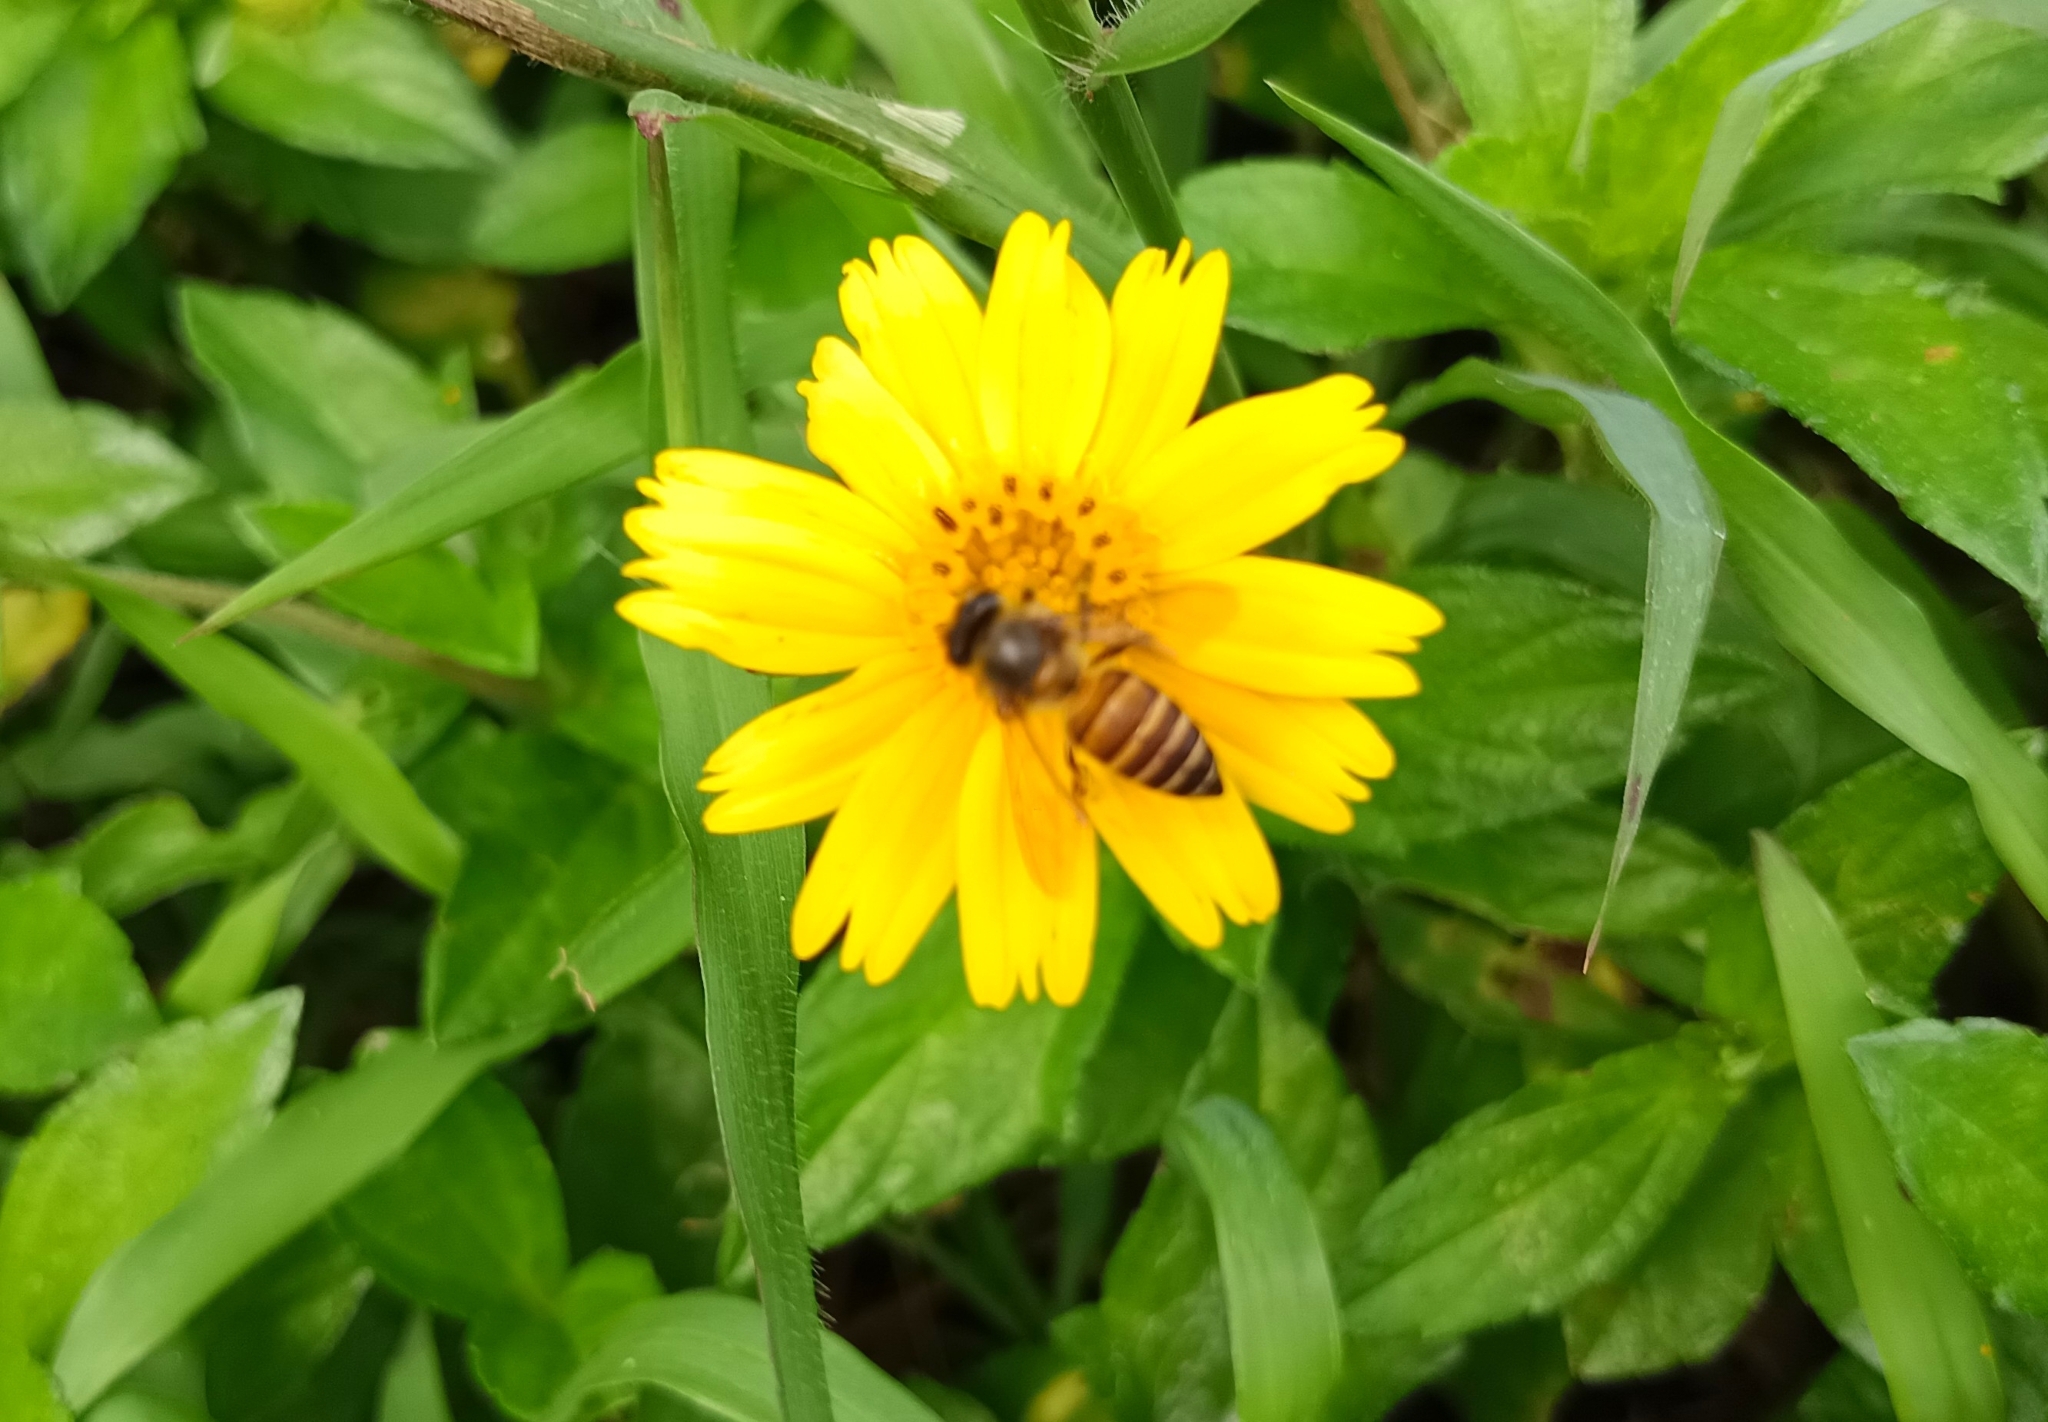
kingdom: Animalia
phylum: Arthropoda
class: Insecta
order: Hymenoptera
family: Apidae
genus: Apis
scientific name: Apis cerana
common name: Honey bee
